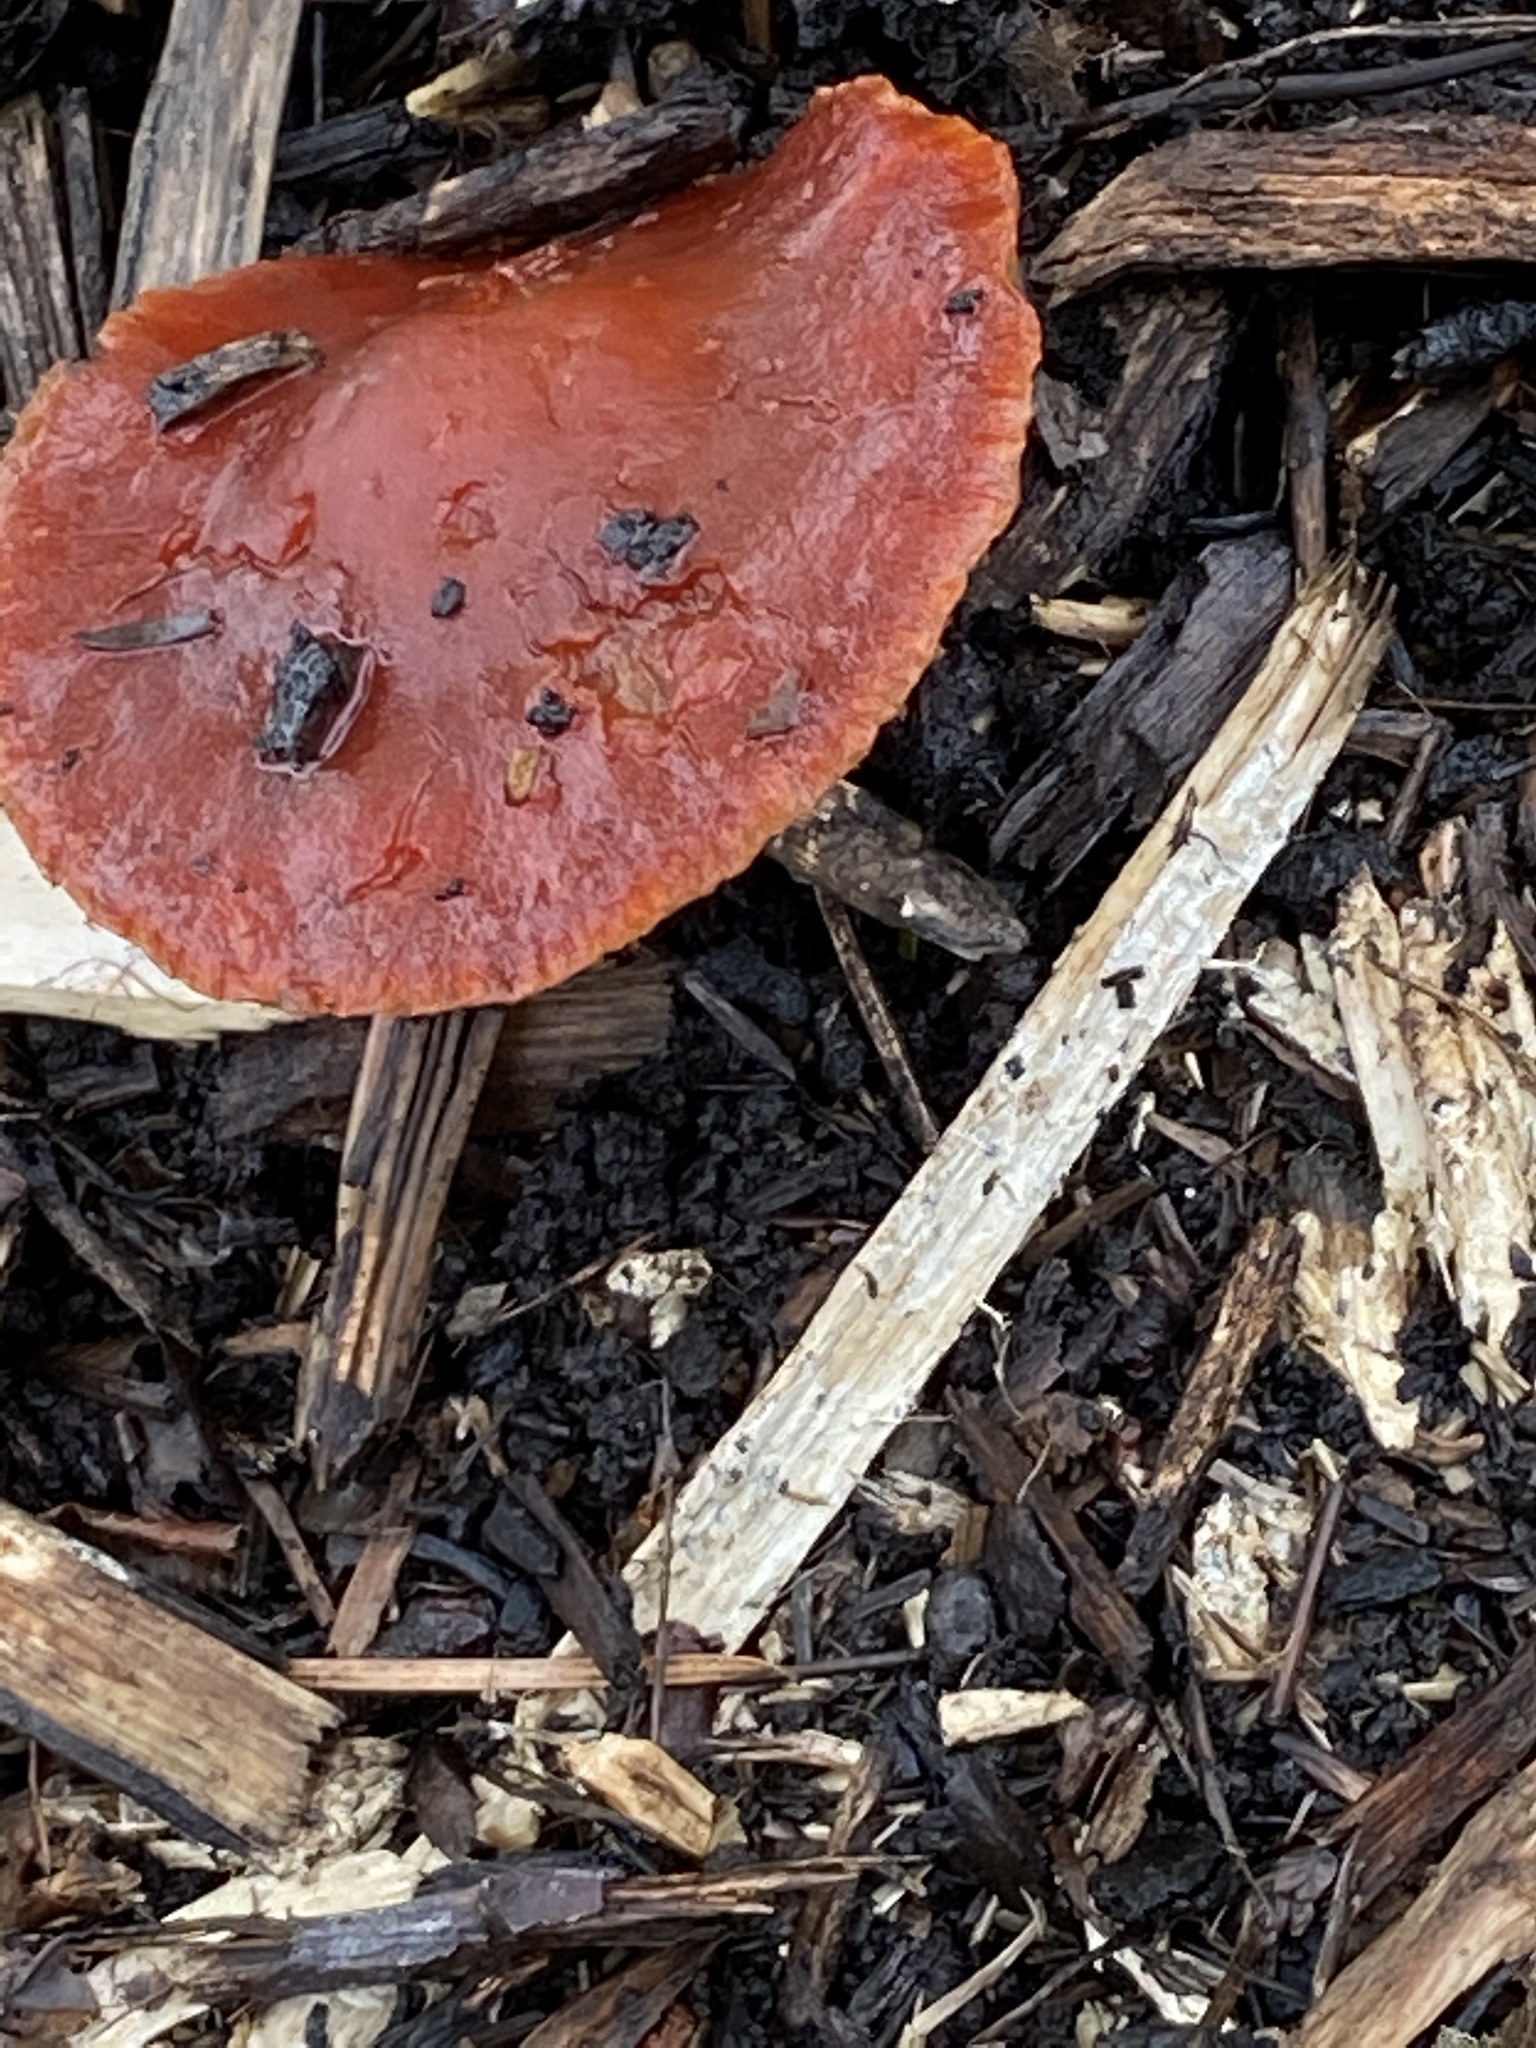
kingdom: Fungi
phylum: Basidiomycota
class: Agaricomycetes
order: Agaricales
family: Strophariaceae
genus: Leratiomyces
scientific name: Leratiomyces ceres
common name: Redlead roundhead
